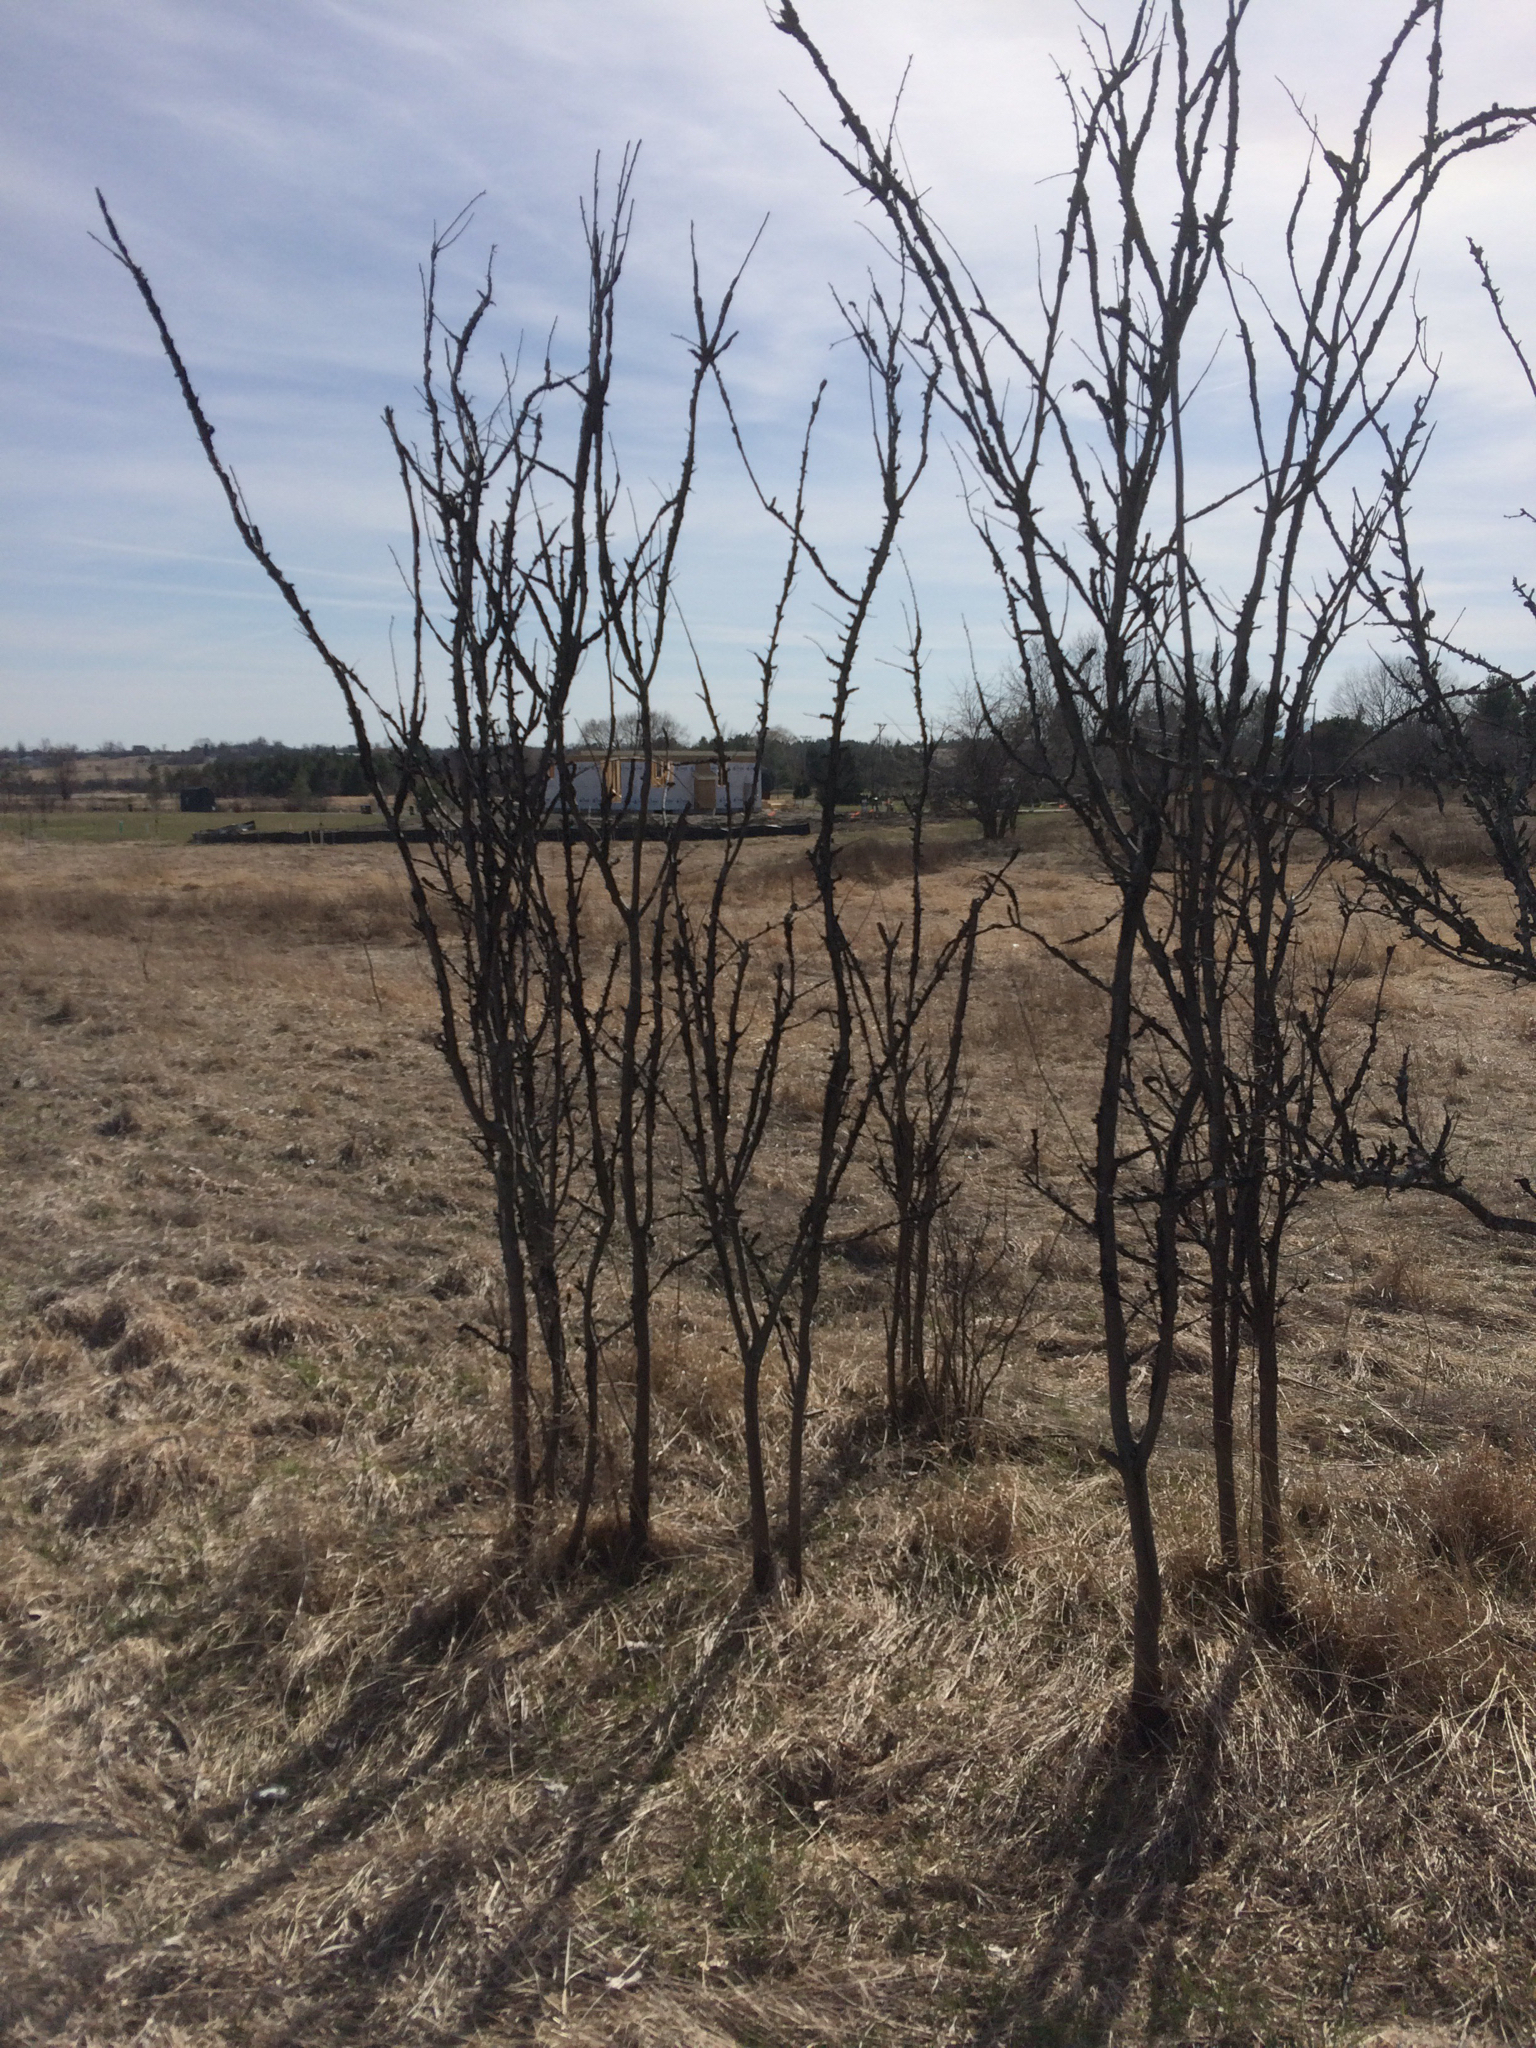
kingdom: Fungi
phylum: Ascomycota
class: Dothideomycetes
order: Venturiales
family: Venturiaceae
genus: Apiosporina
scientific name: Apiosporina morbosa
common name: Black knot
